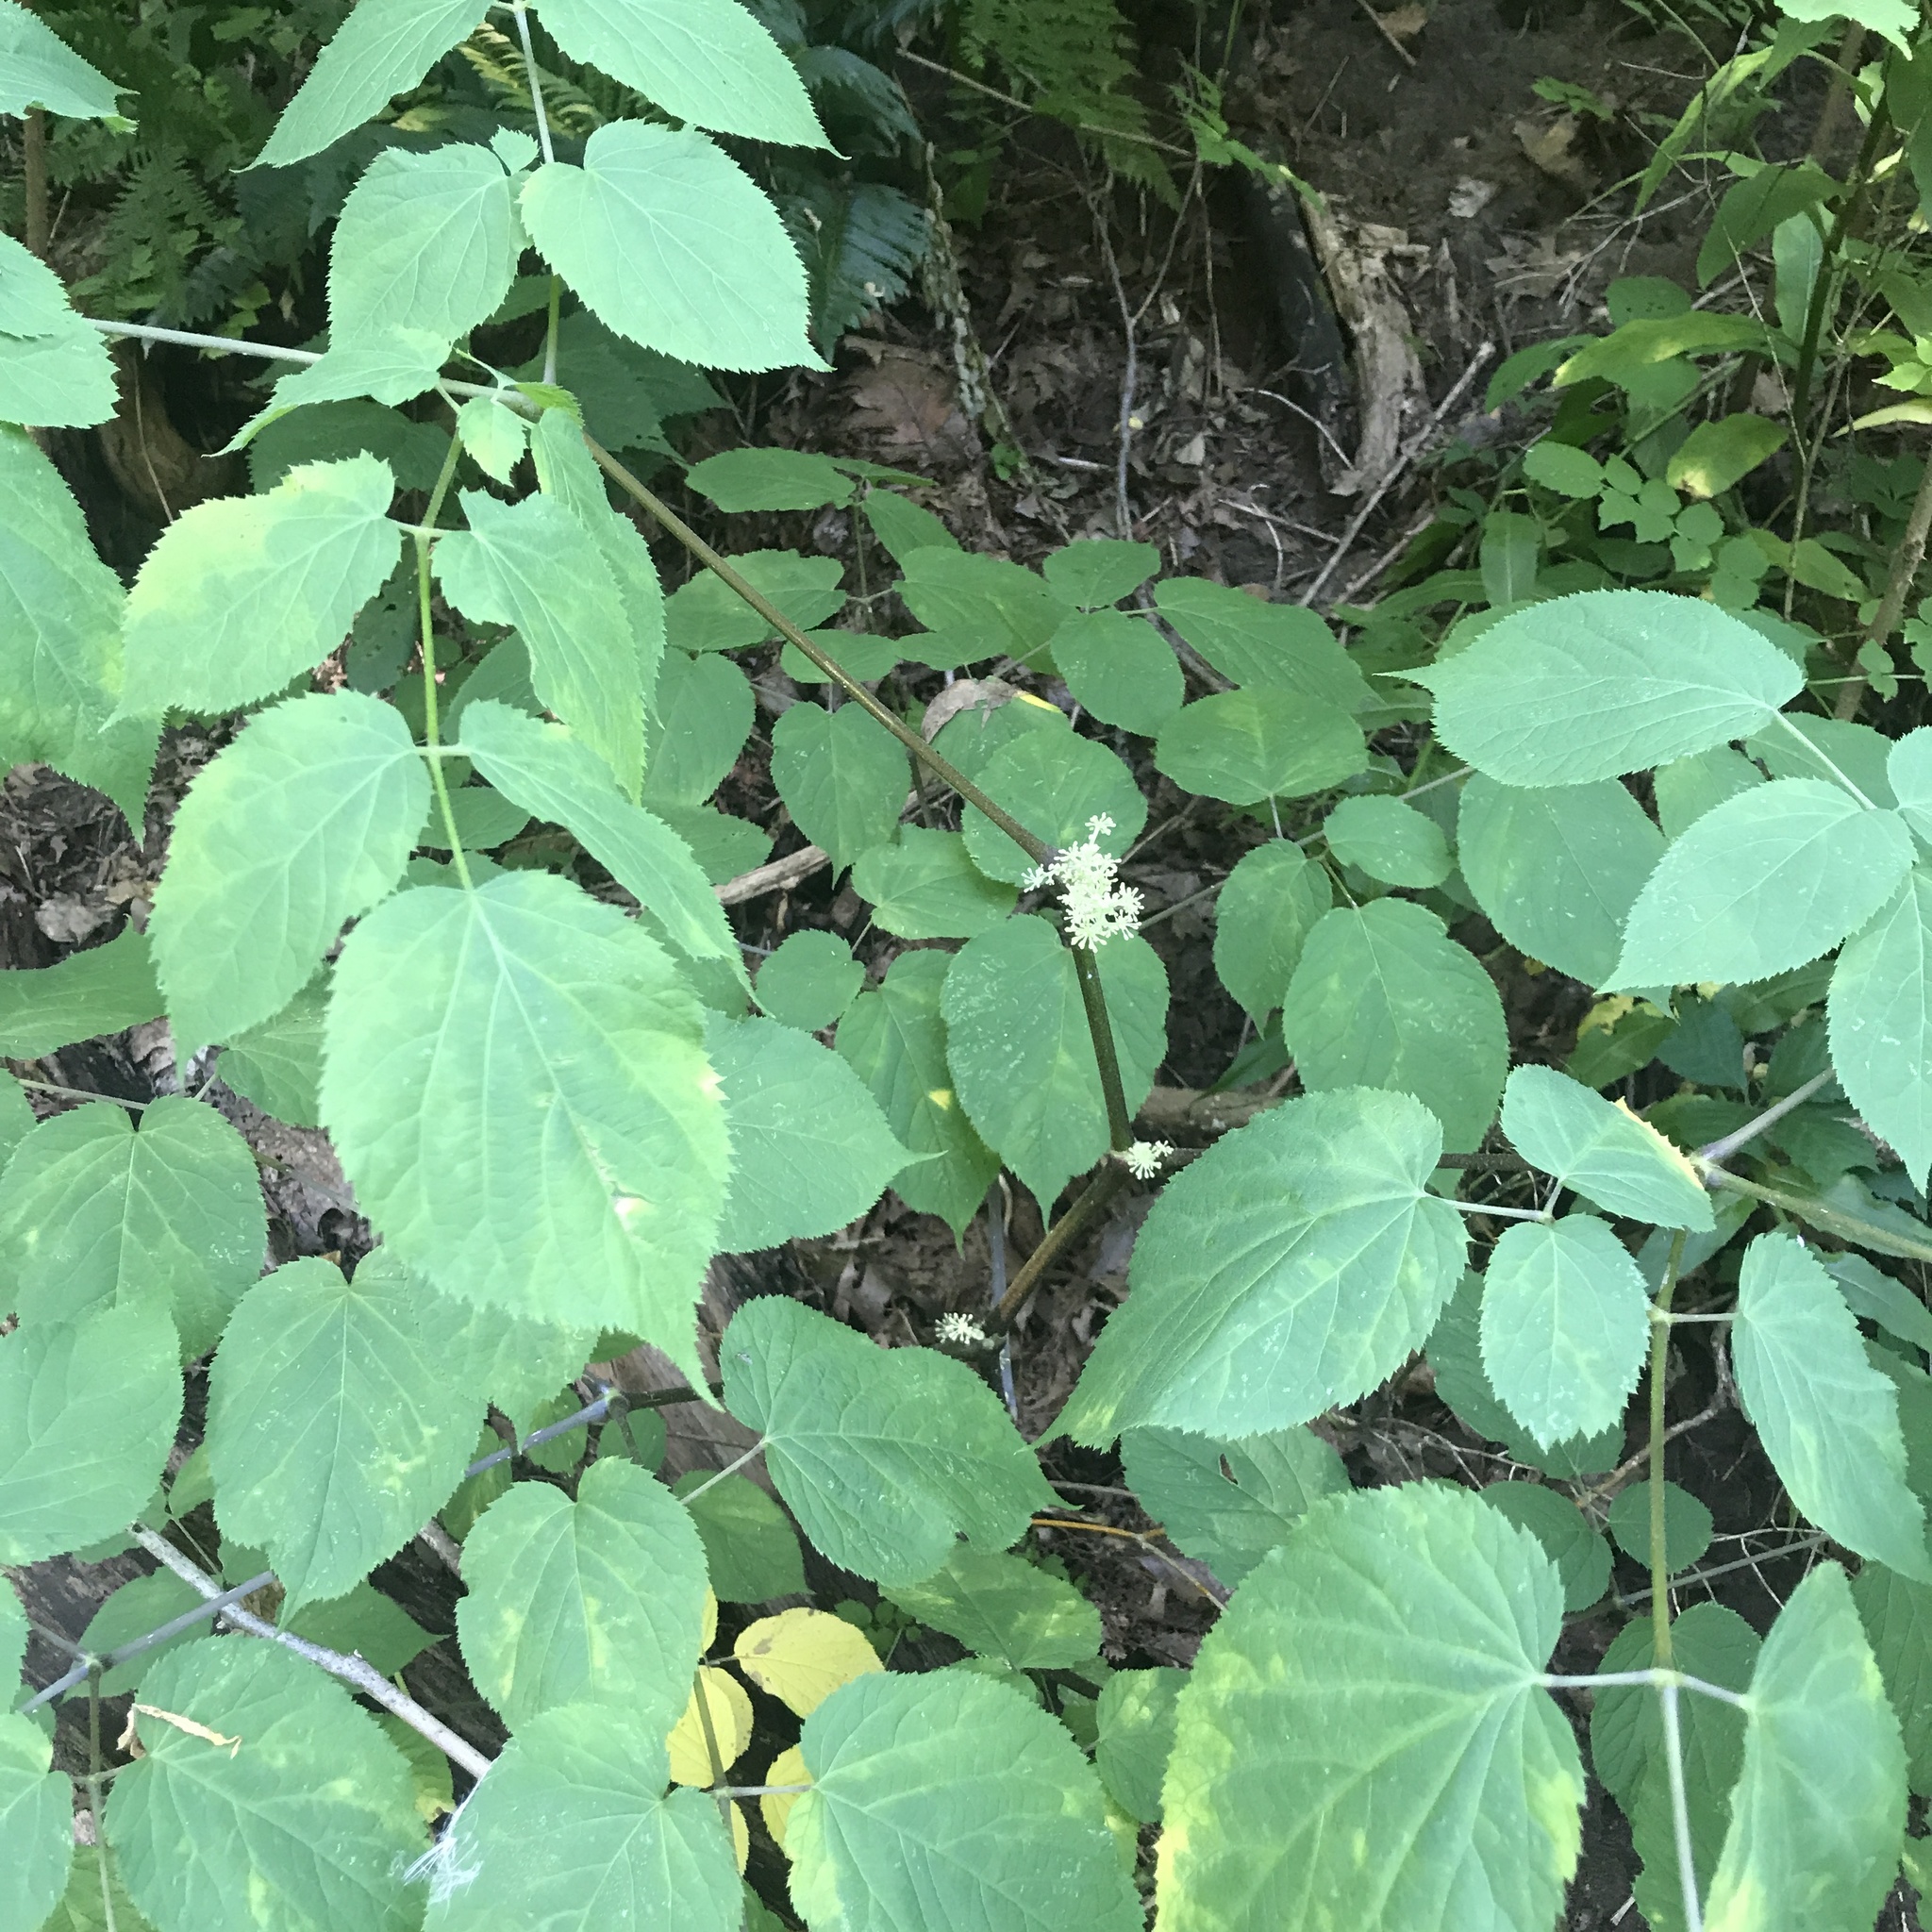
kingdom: Plantae
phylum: Tracheophyta
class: Magnoliopsida
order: Apiales
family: Araliaceae
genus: Aralia
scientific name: Aralia racemosa
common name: American-spikenard
